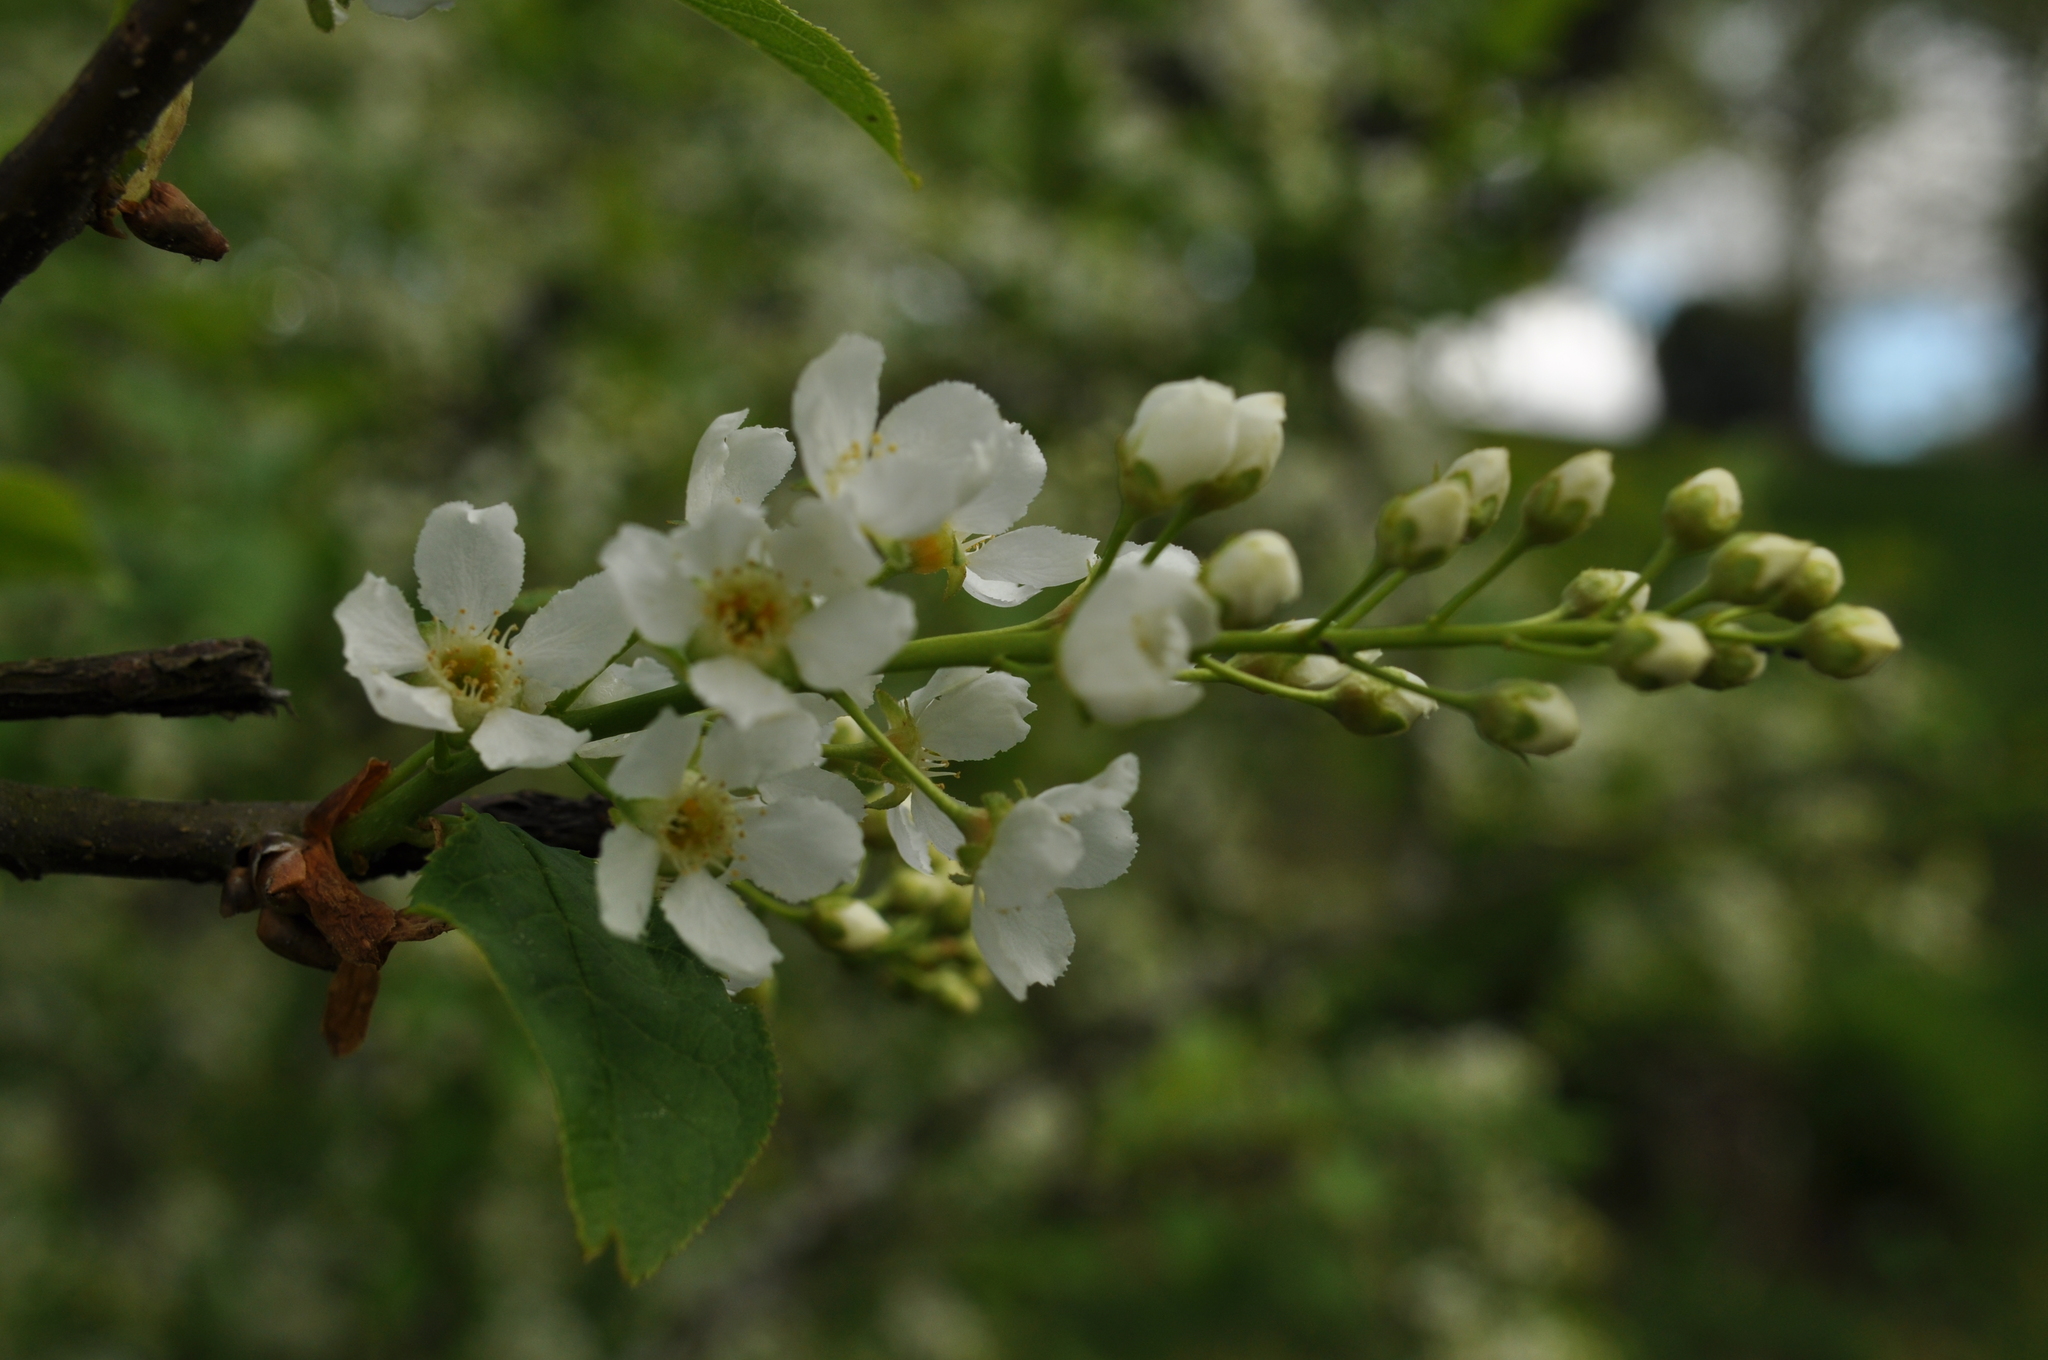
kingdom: Plantae
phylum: Tracheophyta
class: Magnoliopsida
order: Rosales
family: Rosaceae
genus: Prunus
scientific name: Prunus padus
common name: Bird cherry
